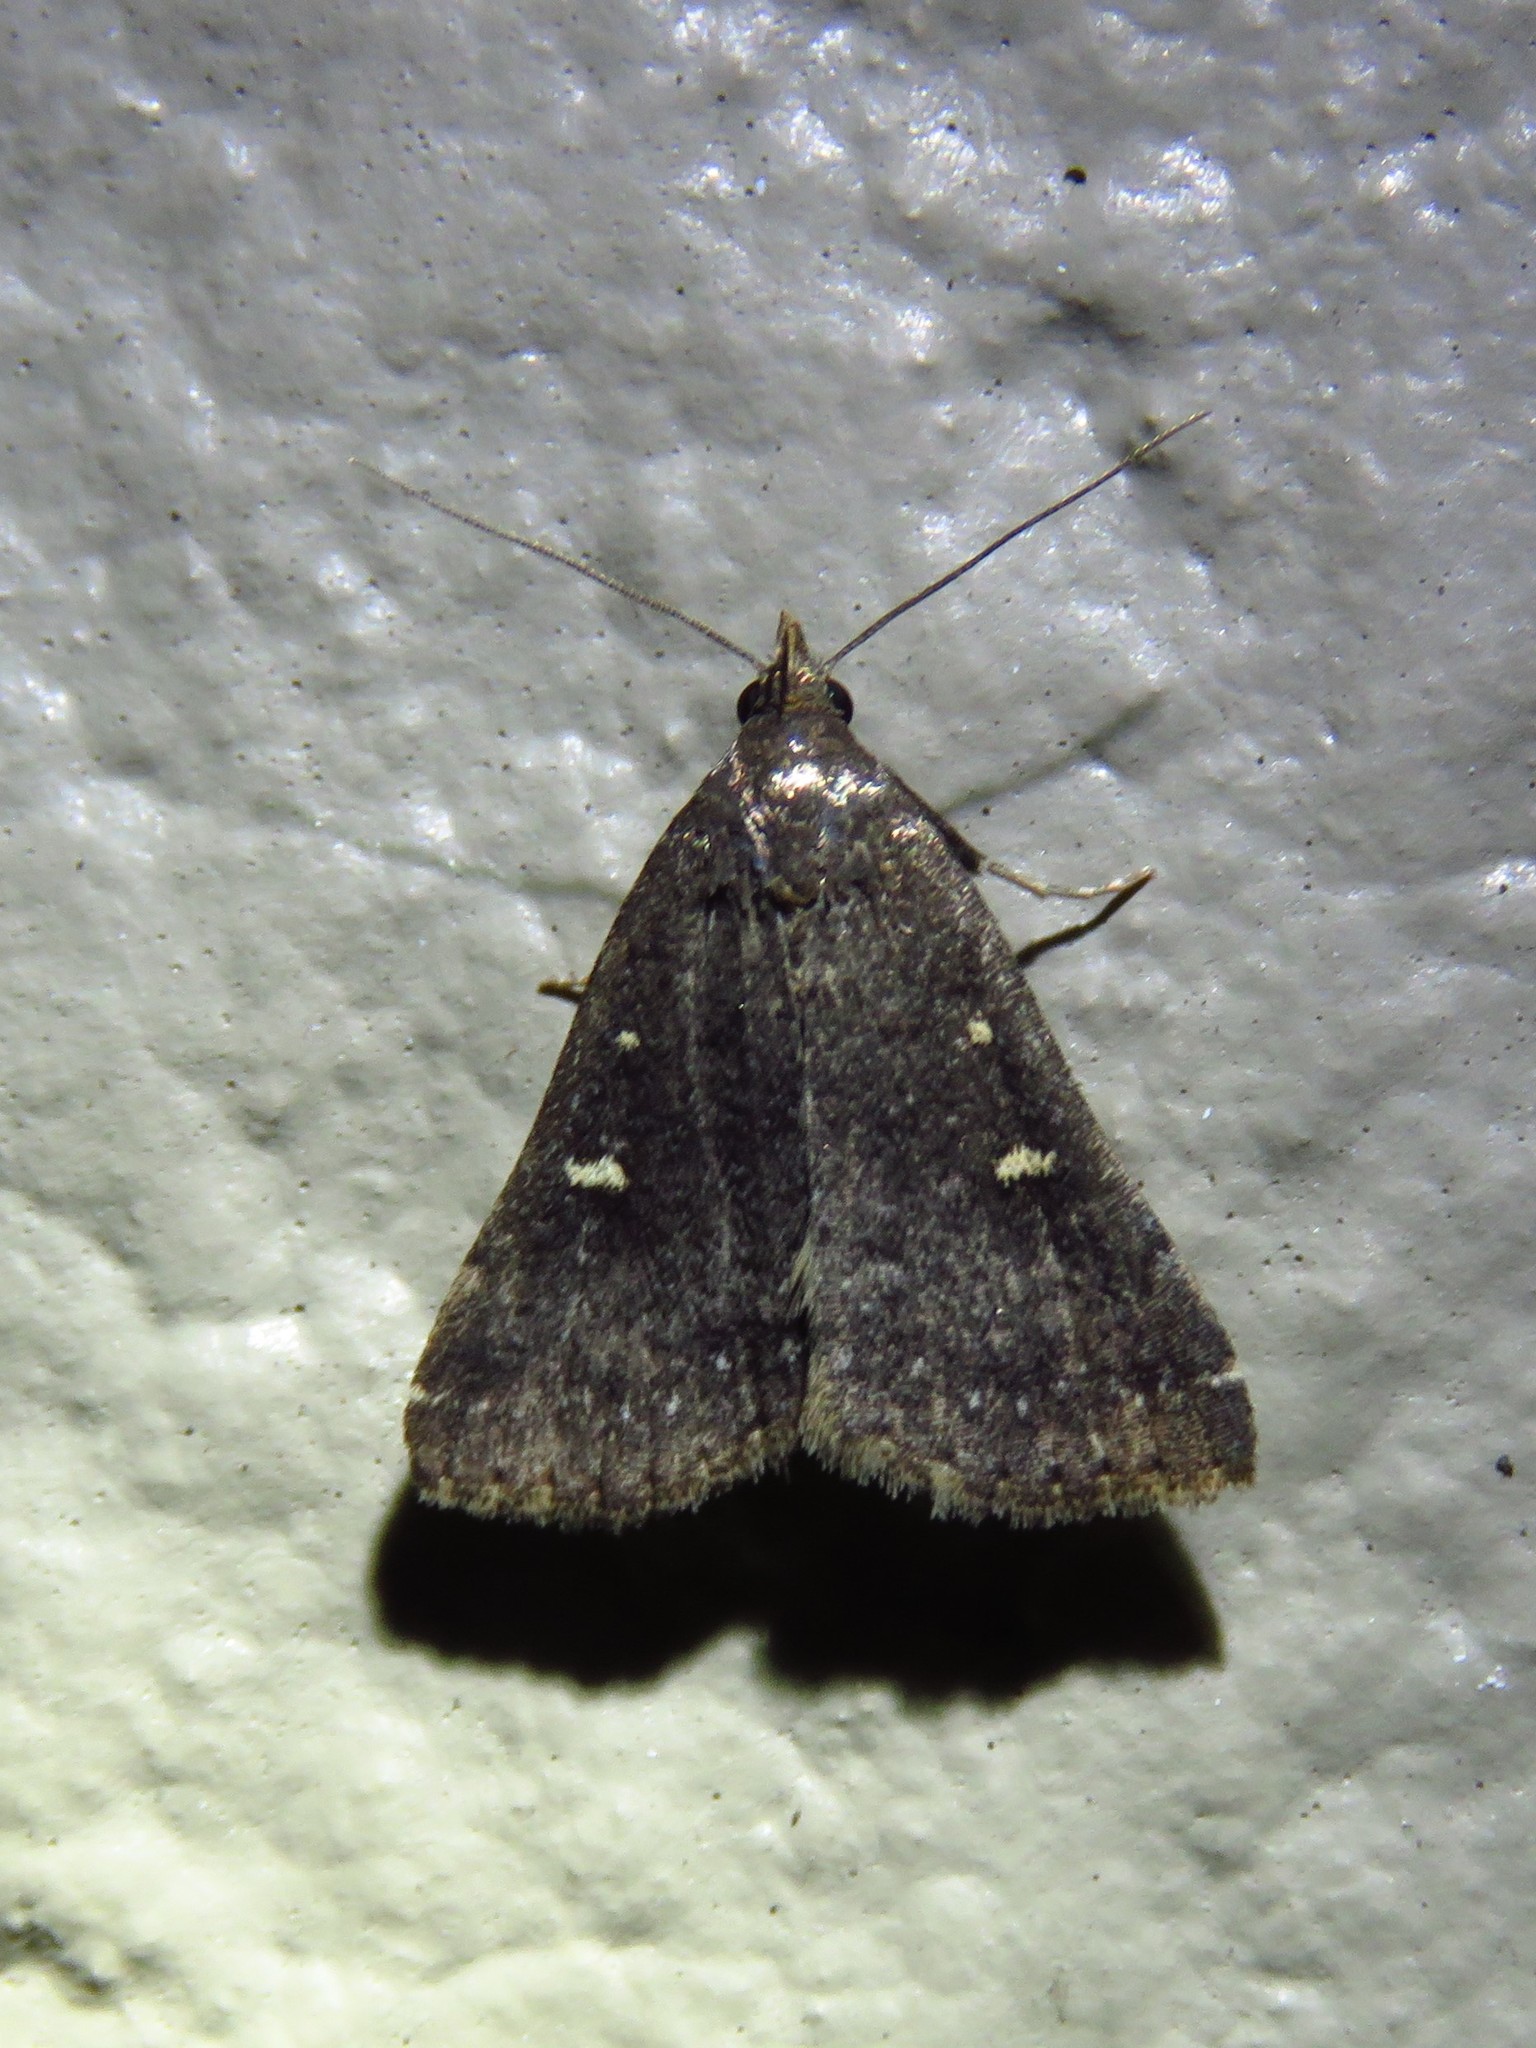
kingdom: Animalia
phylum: Arthropoda
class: Insecta
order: Lepidoptera
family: Erebidae
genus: Tetanolita
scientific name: Tetanolita mynesalis
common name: Smoky tetanolita moth
